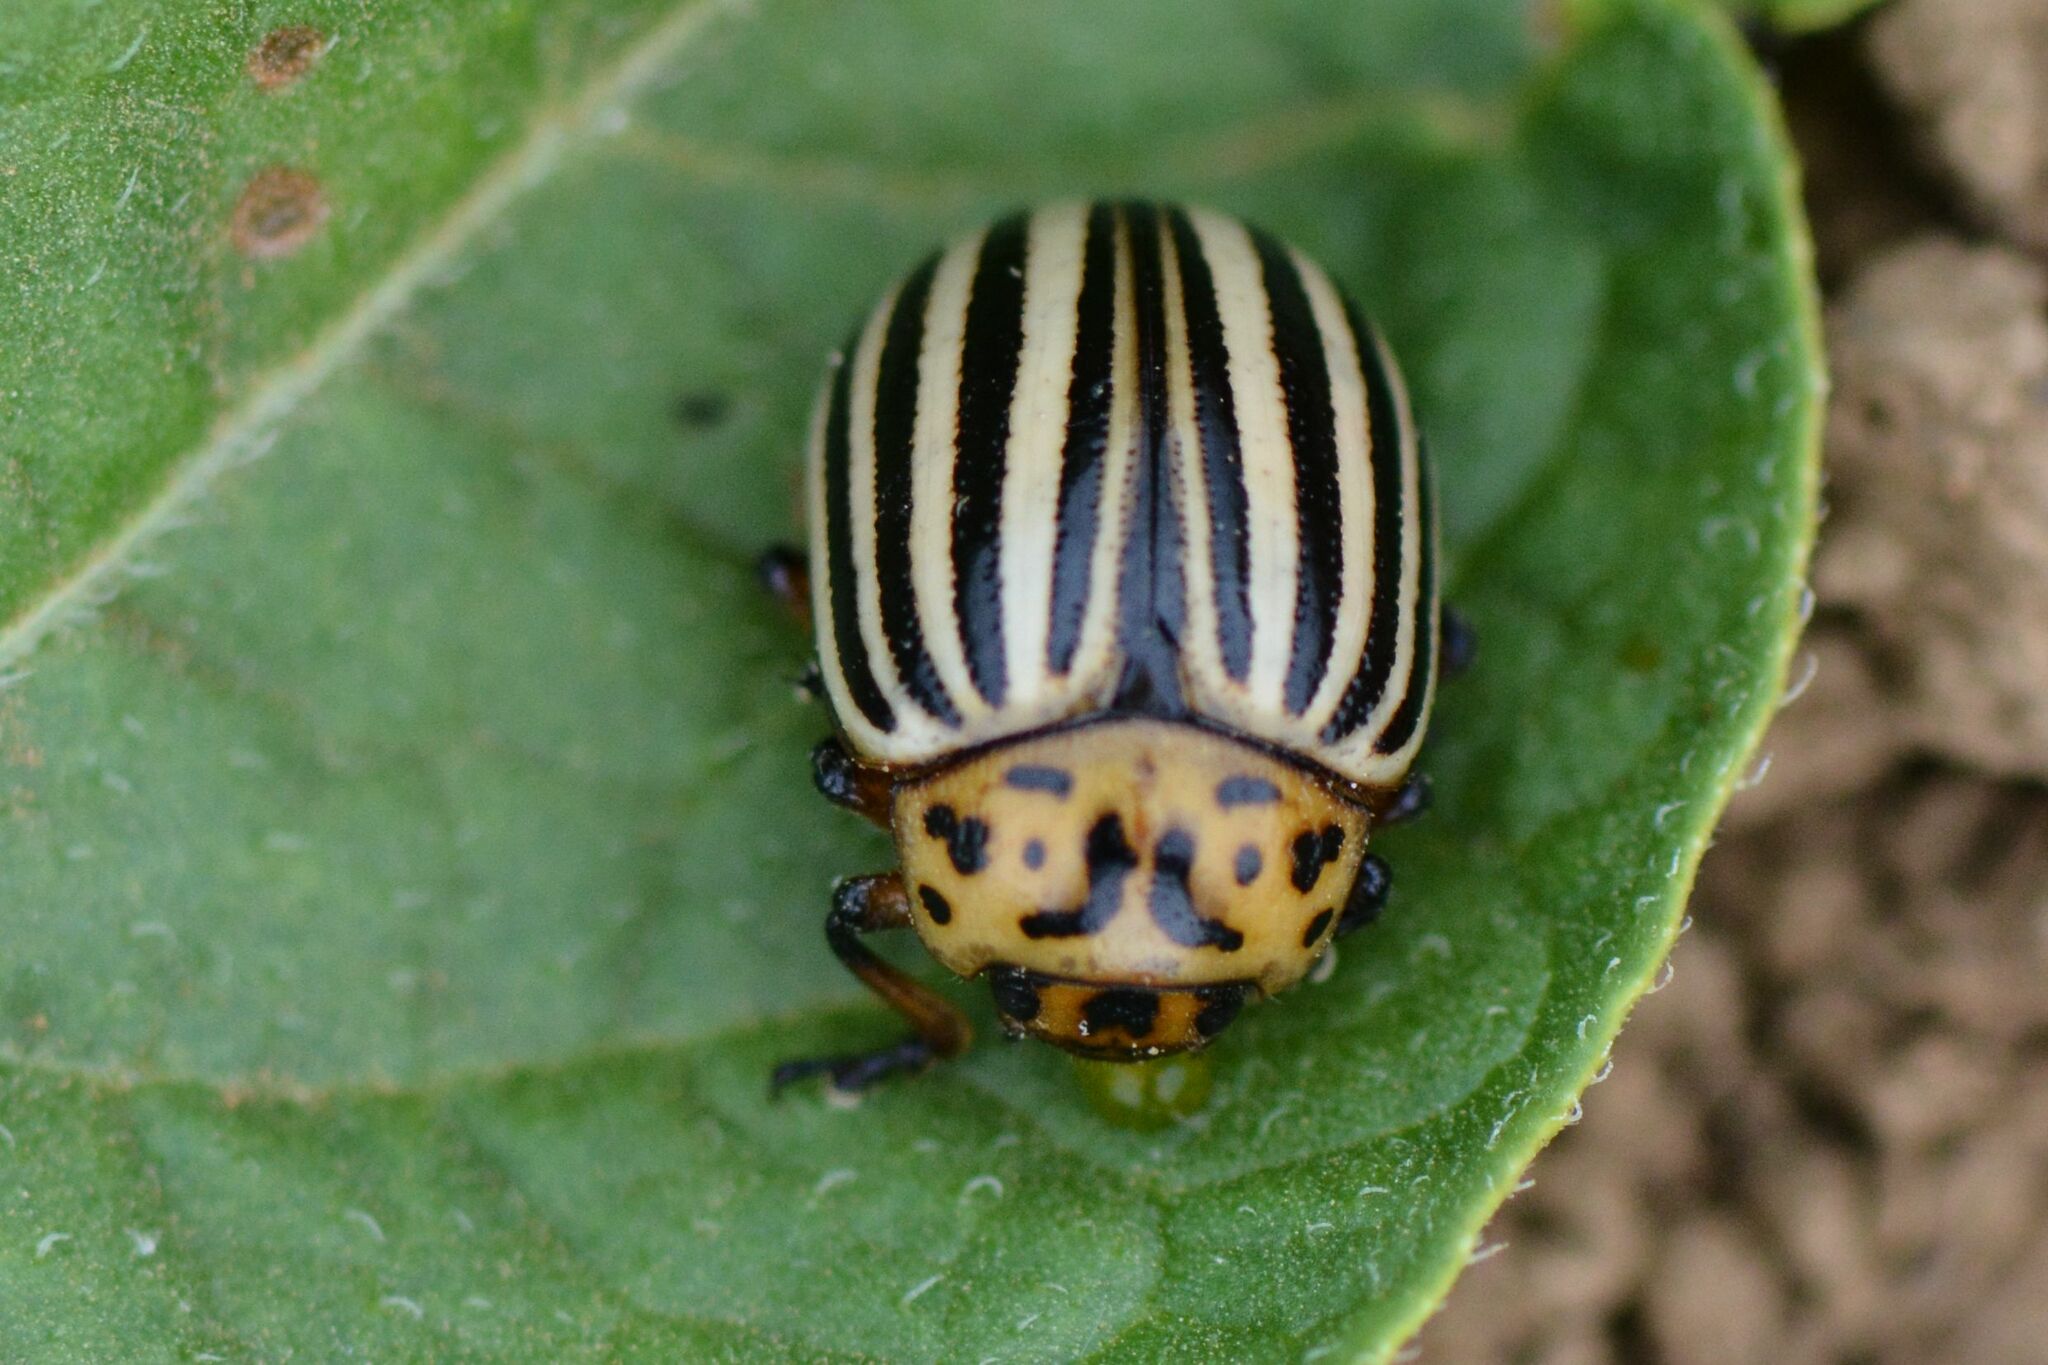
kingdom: Animalia
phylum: Arthropoda
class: Insecta
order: Coleoptera
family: Chrysomelidae
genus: Leptinotarsa
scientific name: Leptinotarsa decemlineata
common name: Colorado potato beetle
